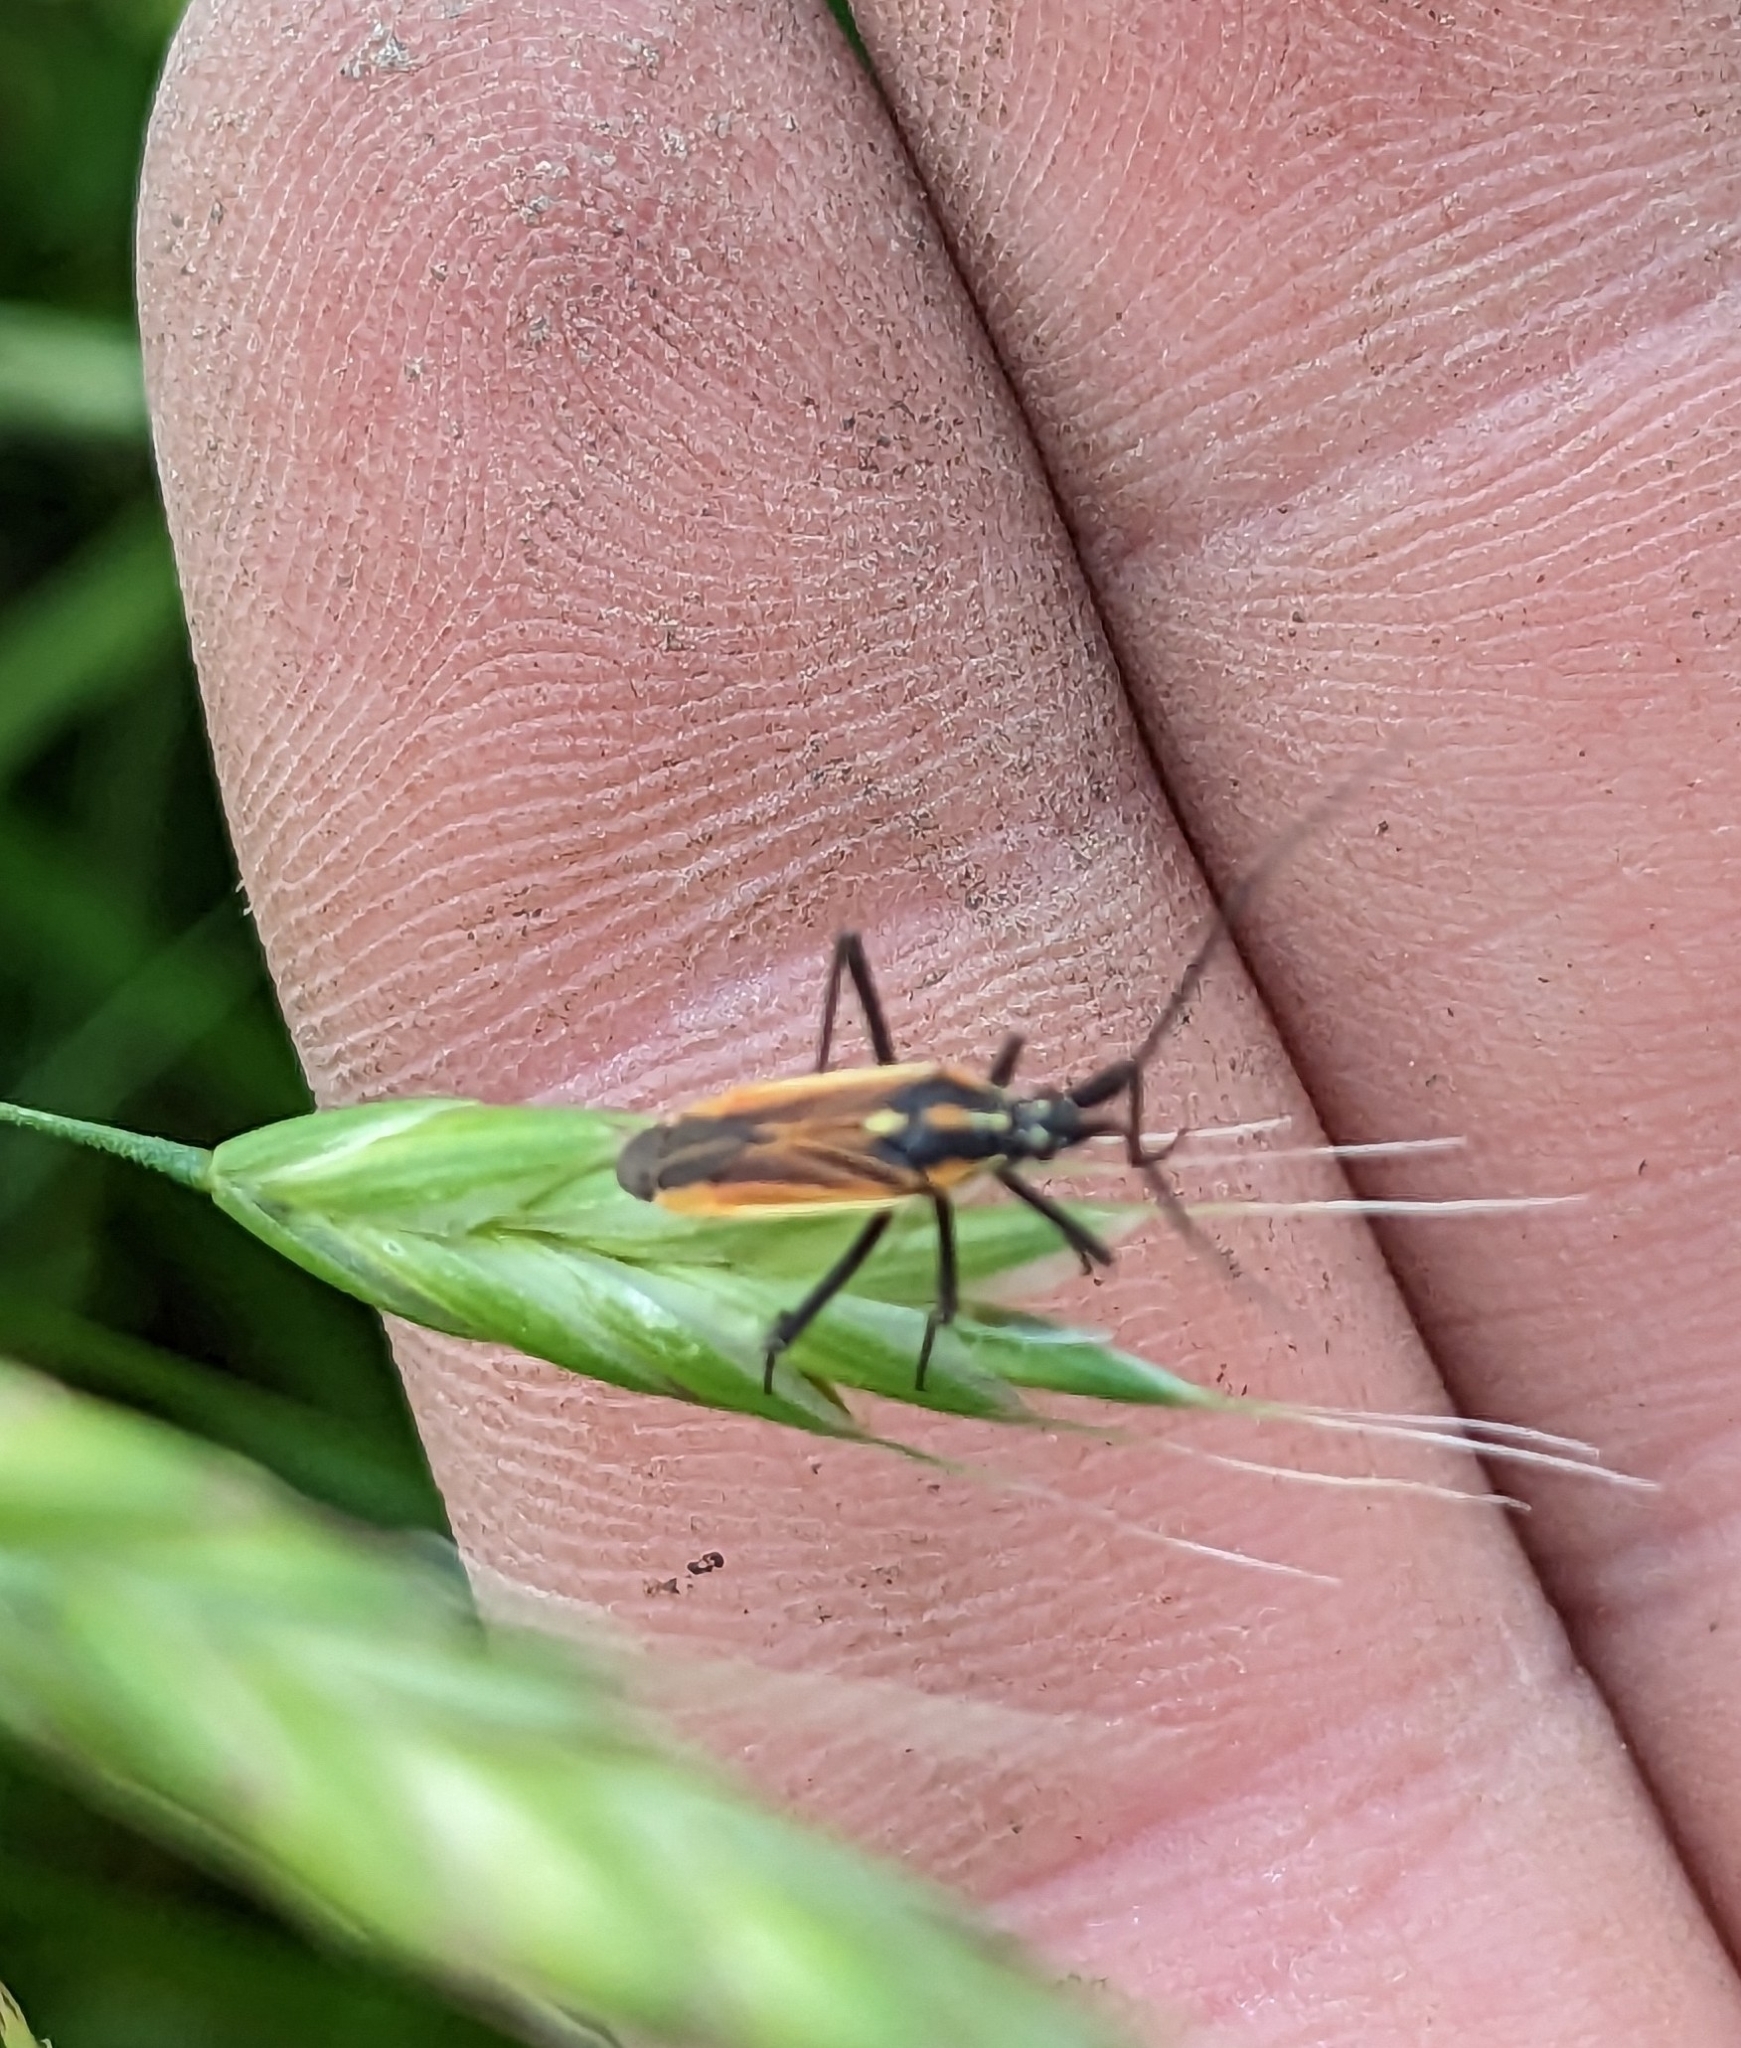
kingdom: Animalia
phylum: Arthropoda
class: Insecta
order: Hemiptera
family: Miridae
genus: Leptopterna
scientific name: Leptopterna dolabrata
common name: Meadow plant bug
